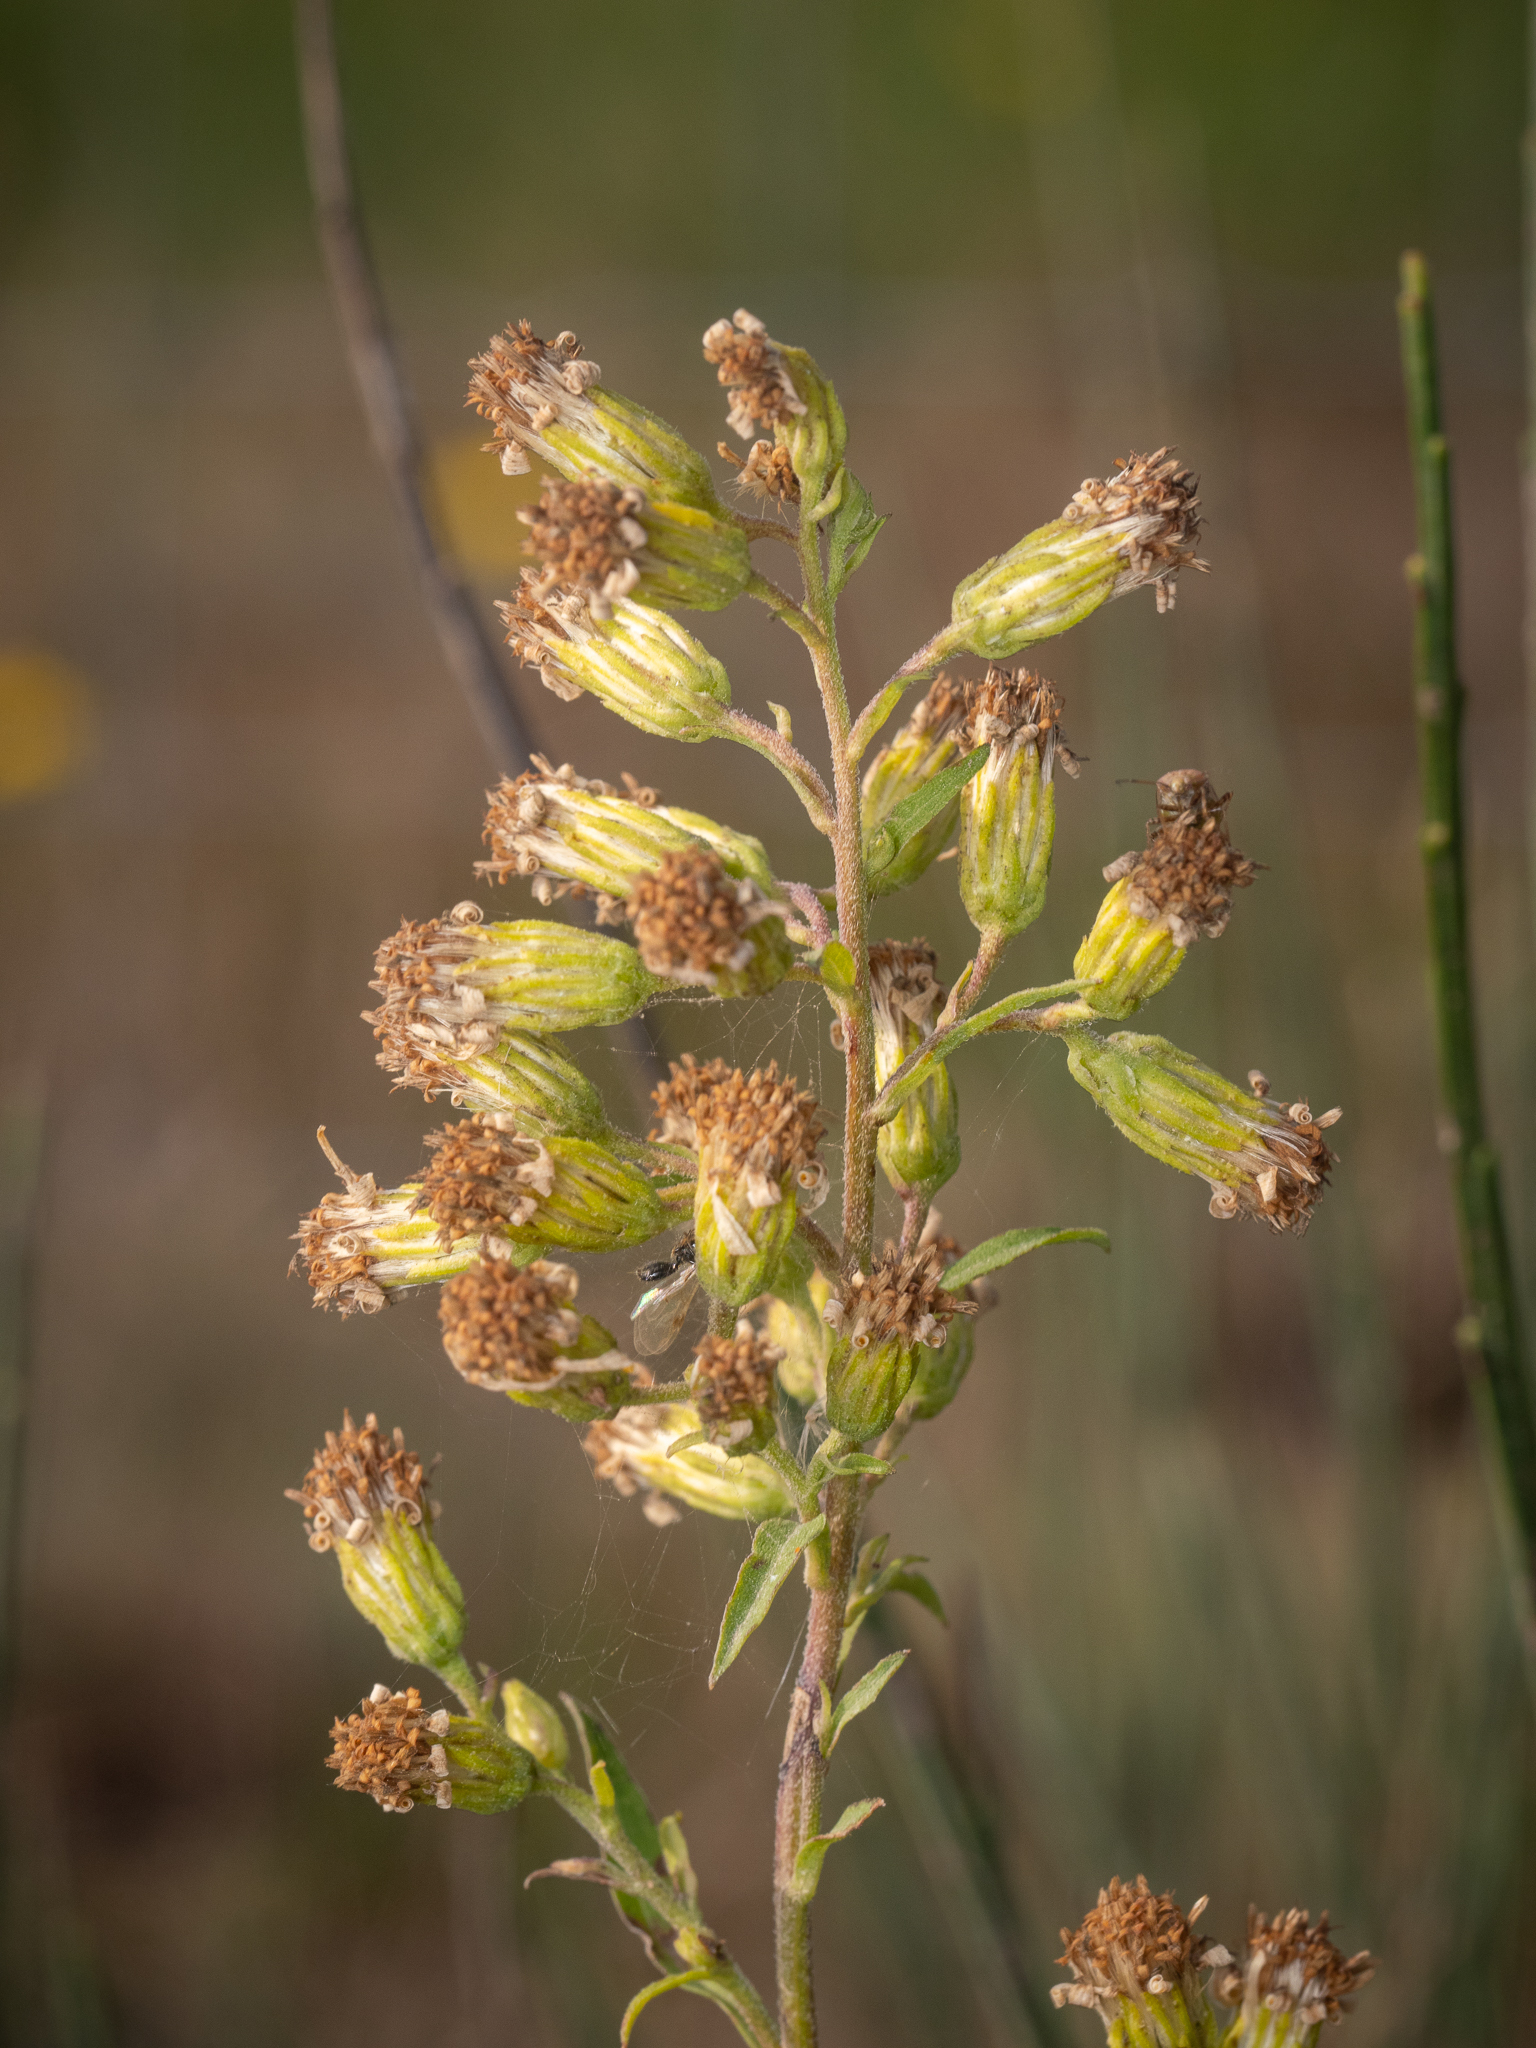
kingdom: Plantae
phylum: Tracheophyta
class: Magnoliopsida
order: Asterales
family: Asteraceae
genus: Solidago
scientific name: Solidago virgaurea
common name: Goldenrod
